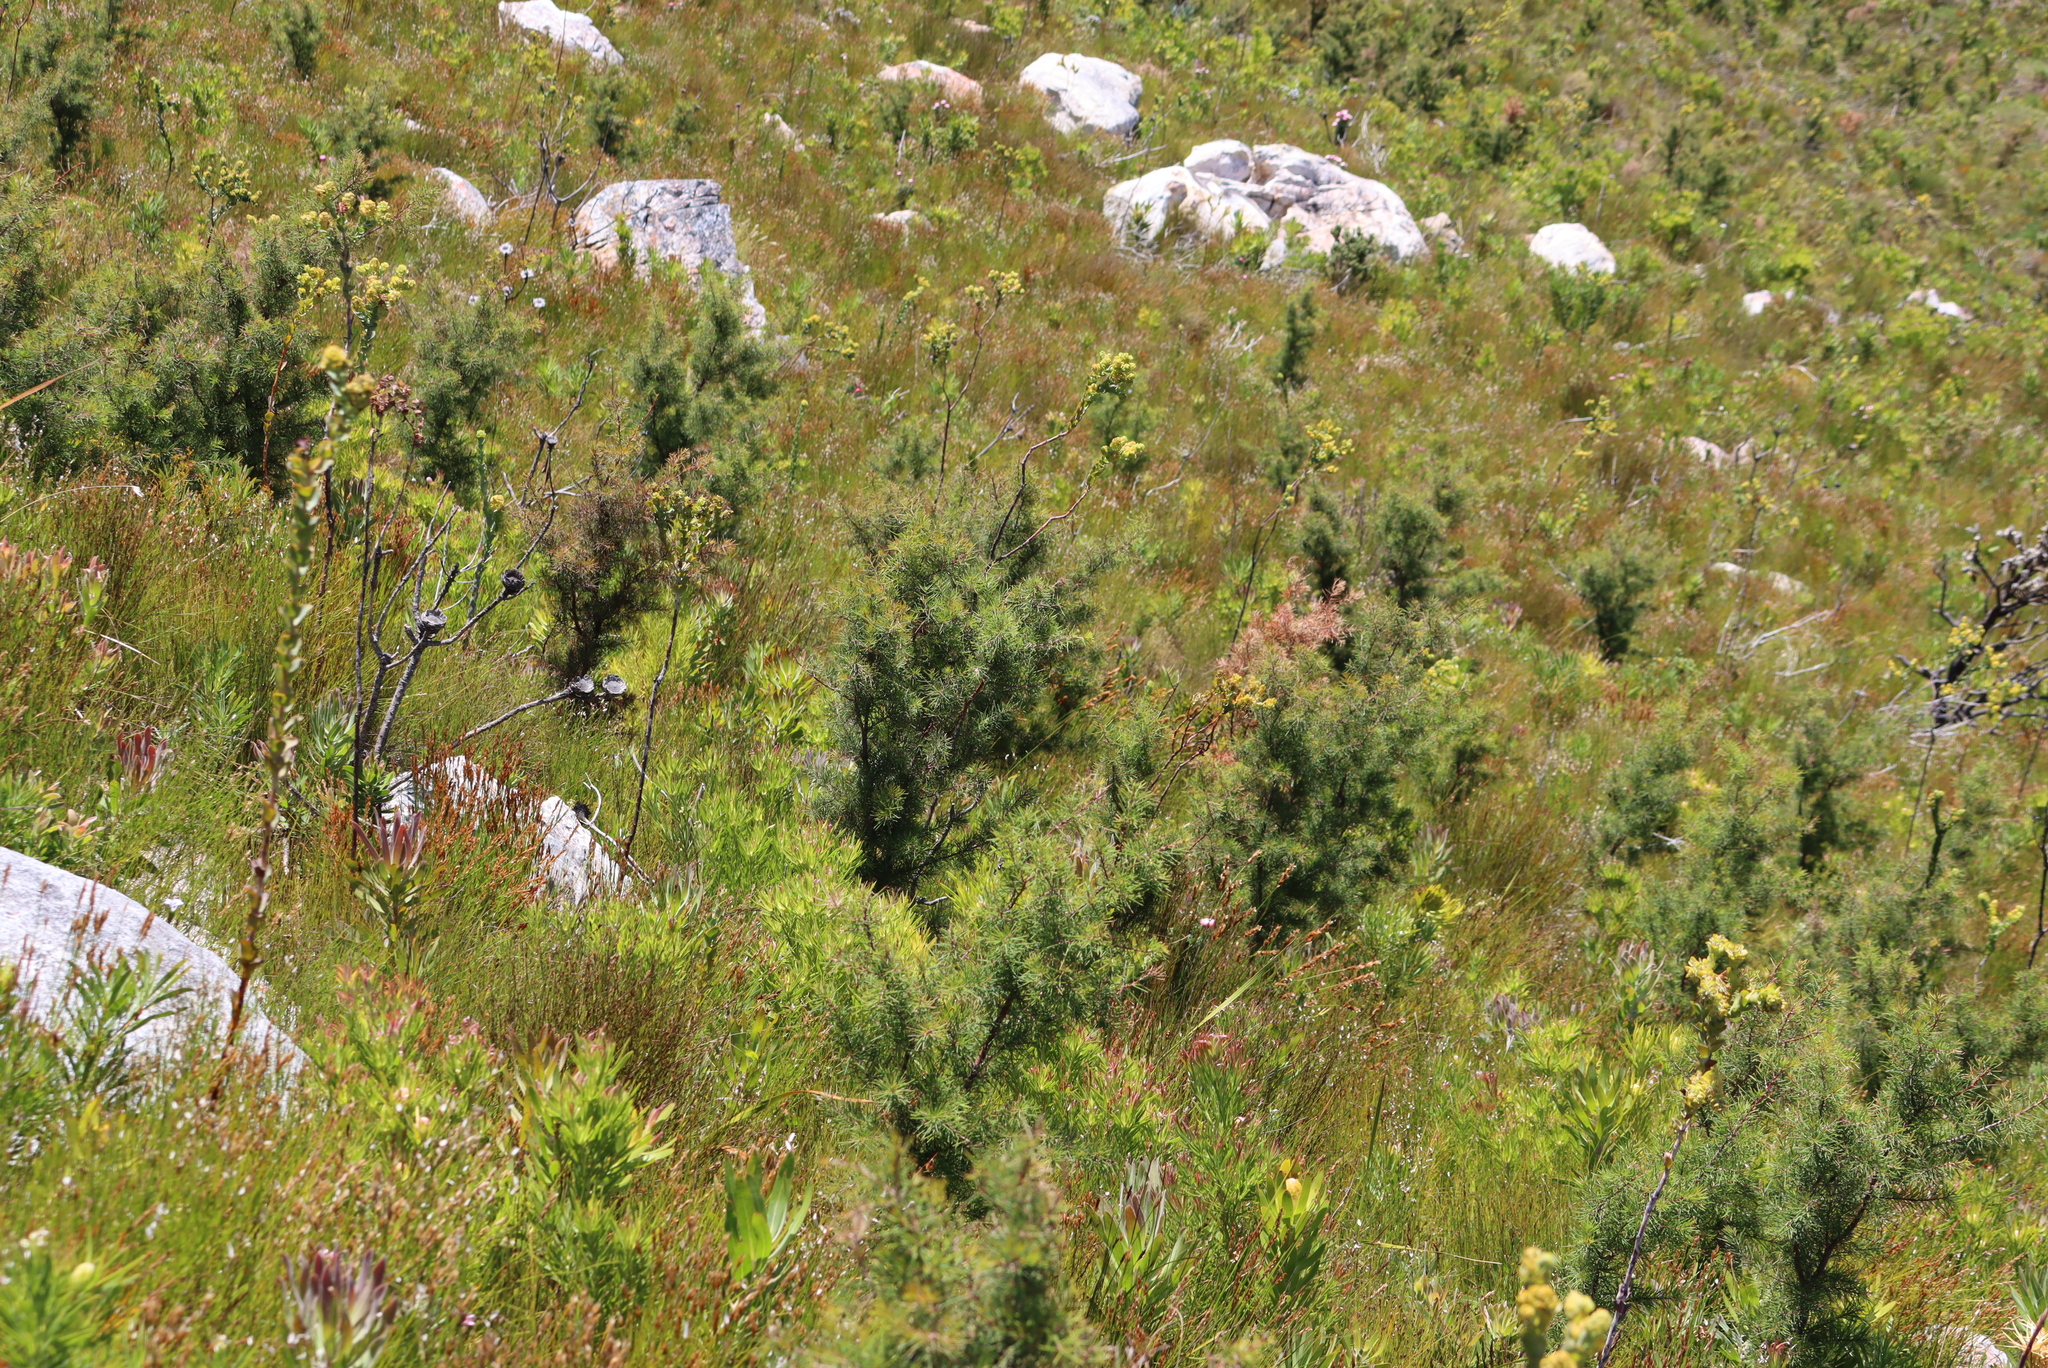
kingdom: Plantae
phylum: Tracheophyta
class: Magnoliopsida
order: Proteales
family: Proteaceae
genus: Hakea
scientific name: Hakea sericea
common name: Needle bush
